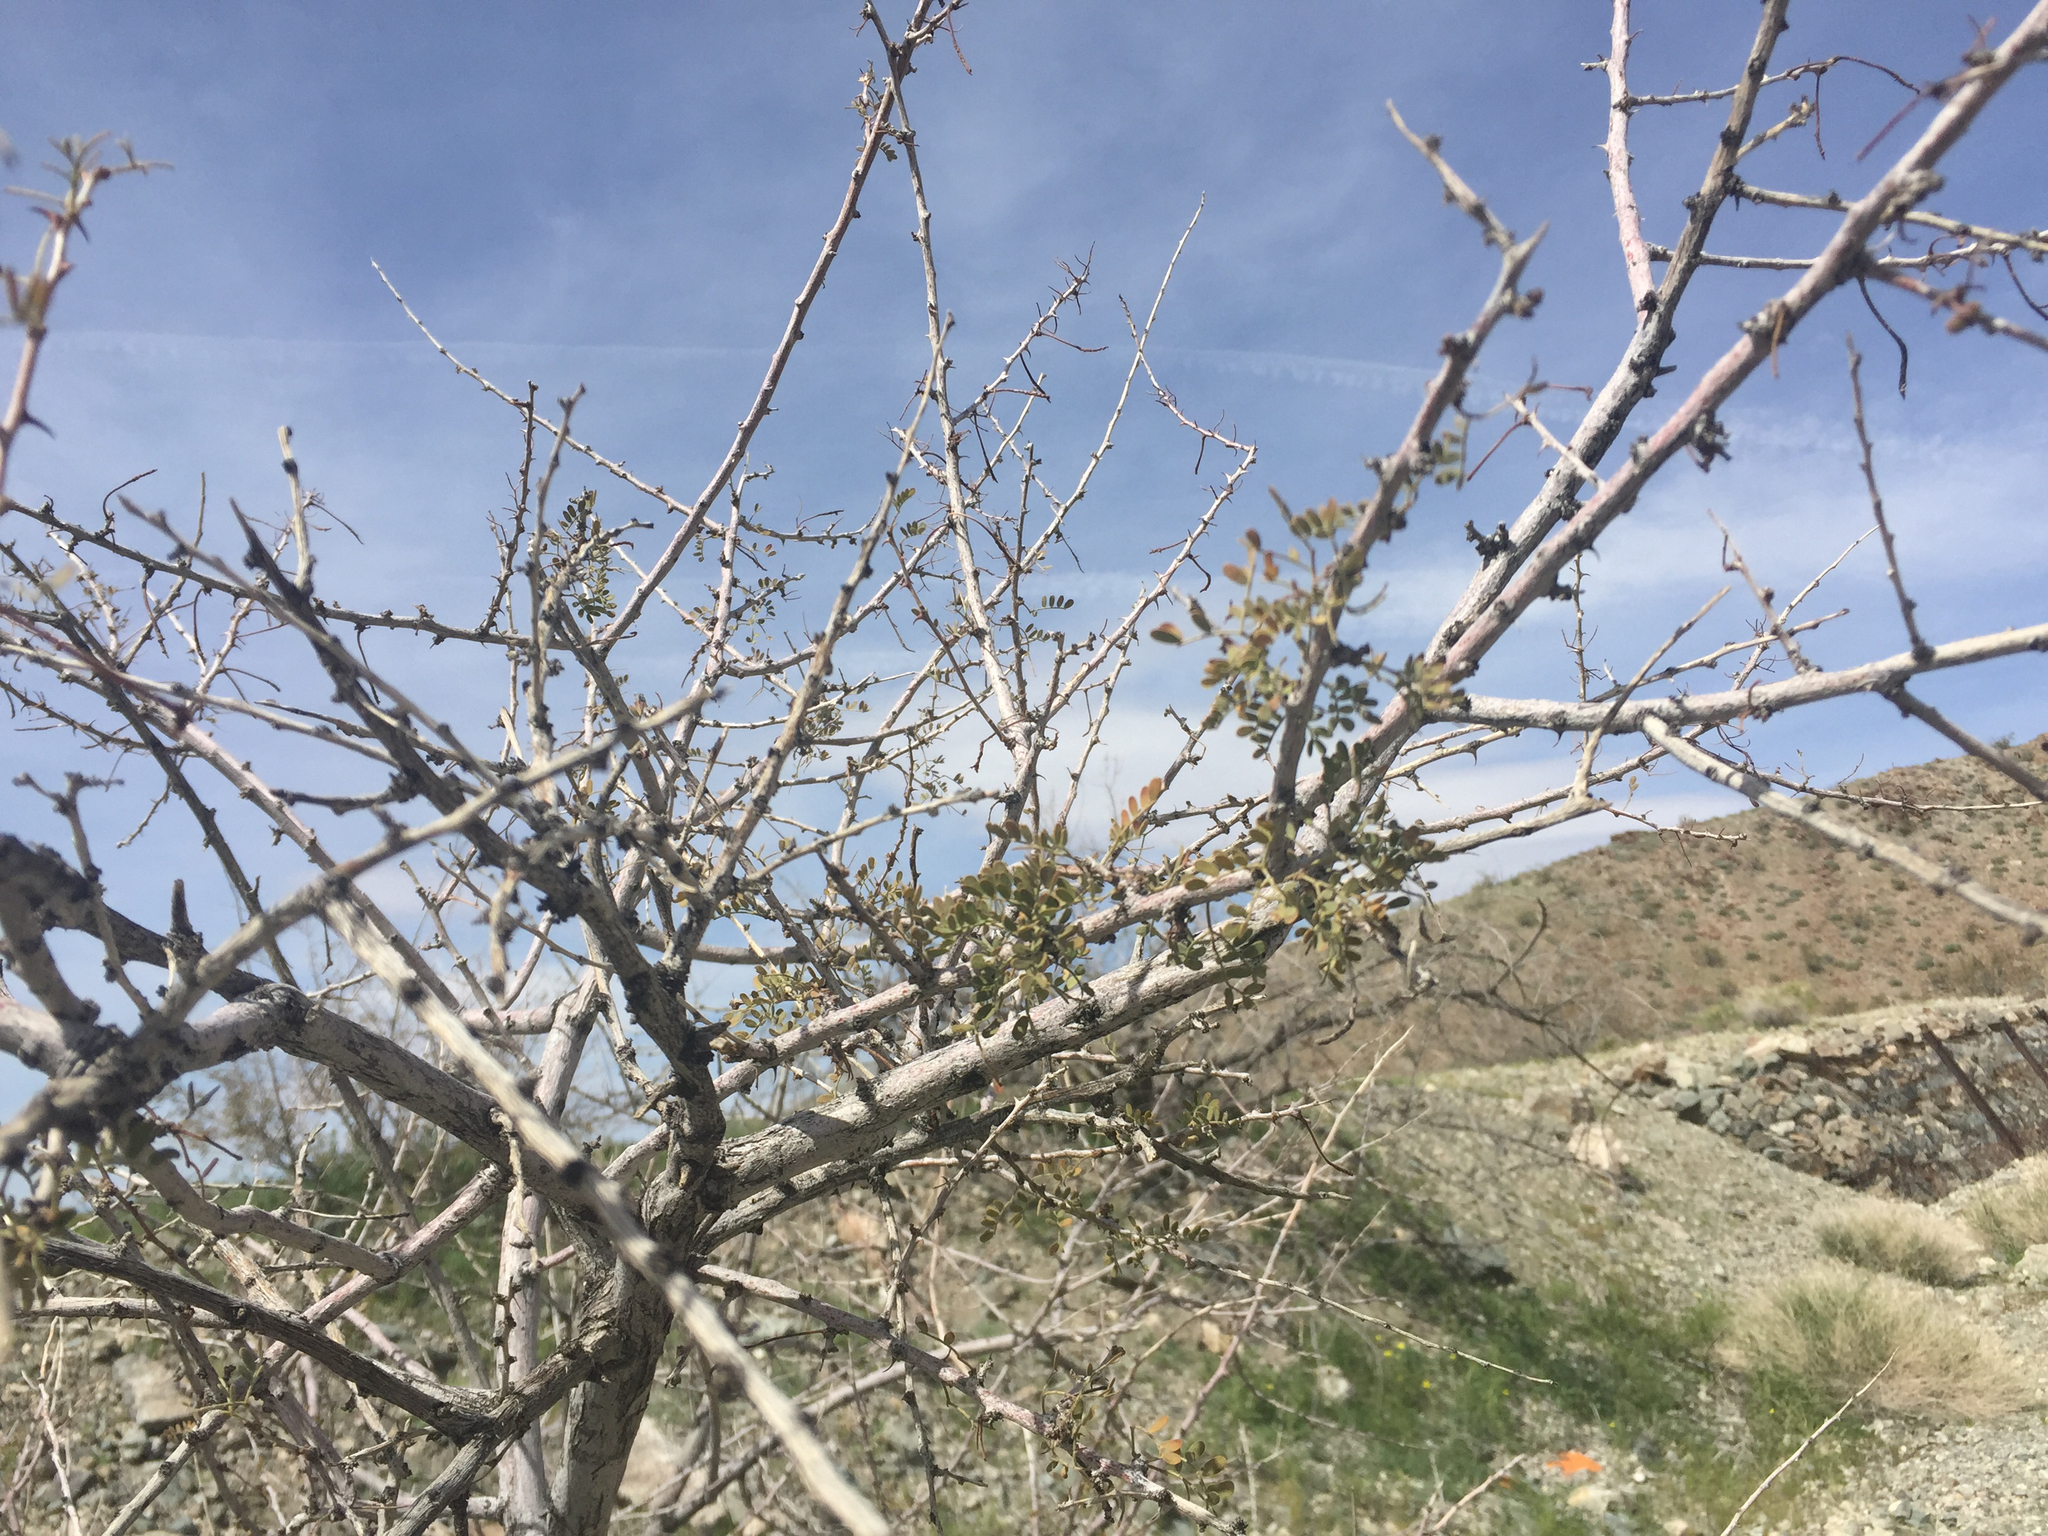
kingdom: Plantae
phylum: Tracheophyta
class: Magnoliopsida
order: Fabales
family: Fabaceae
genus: Senegalia
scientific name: Senegalia greggii
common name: Texas-mimosa
